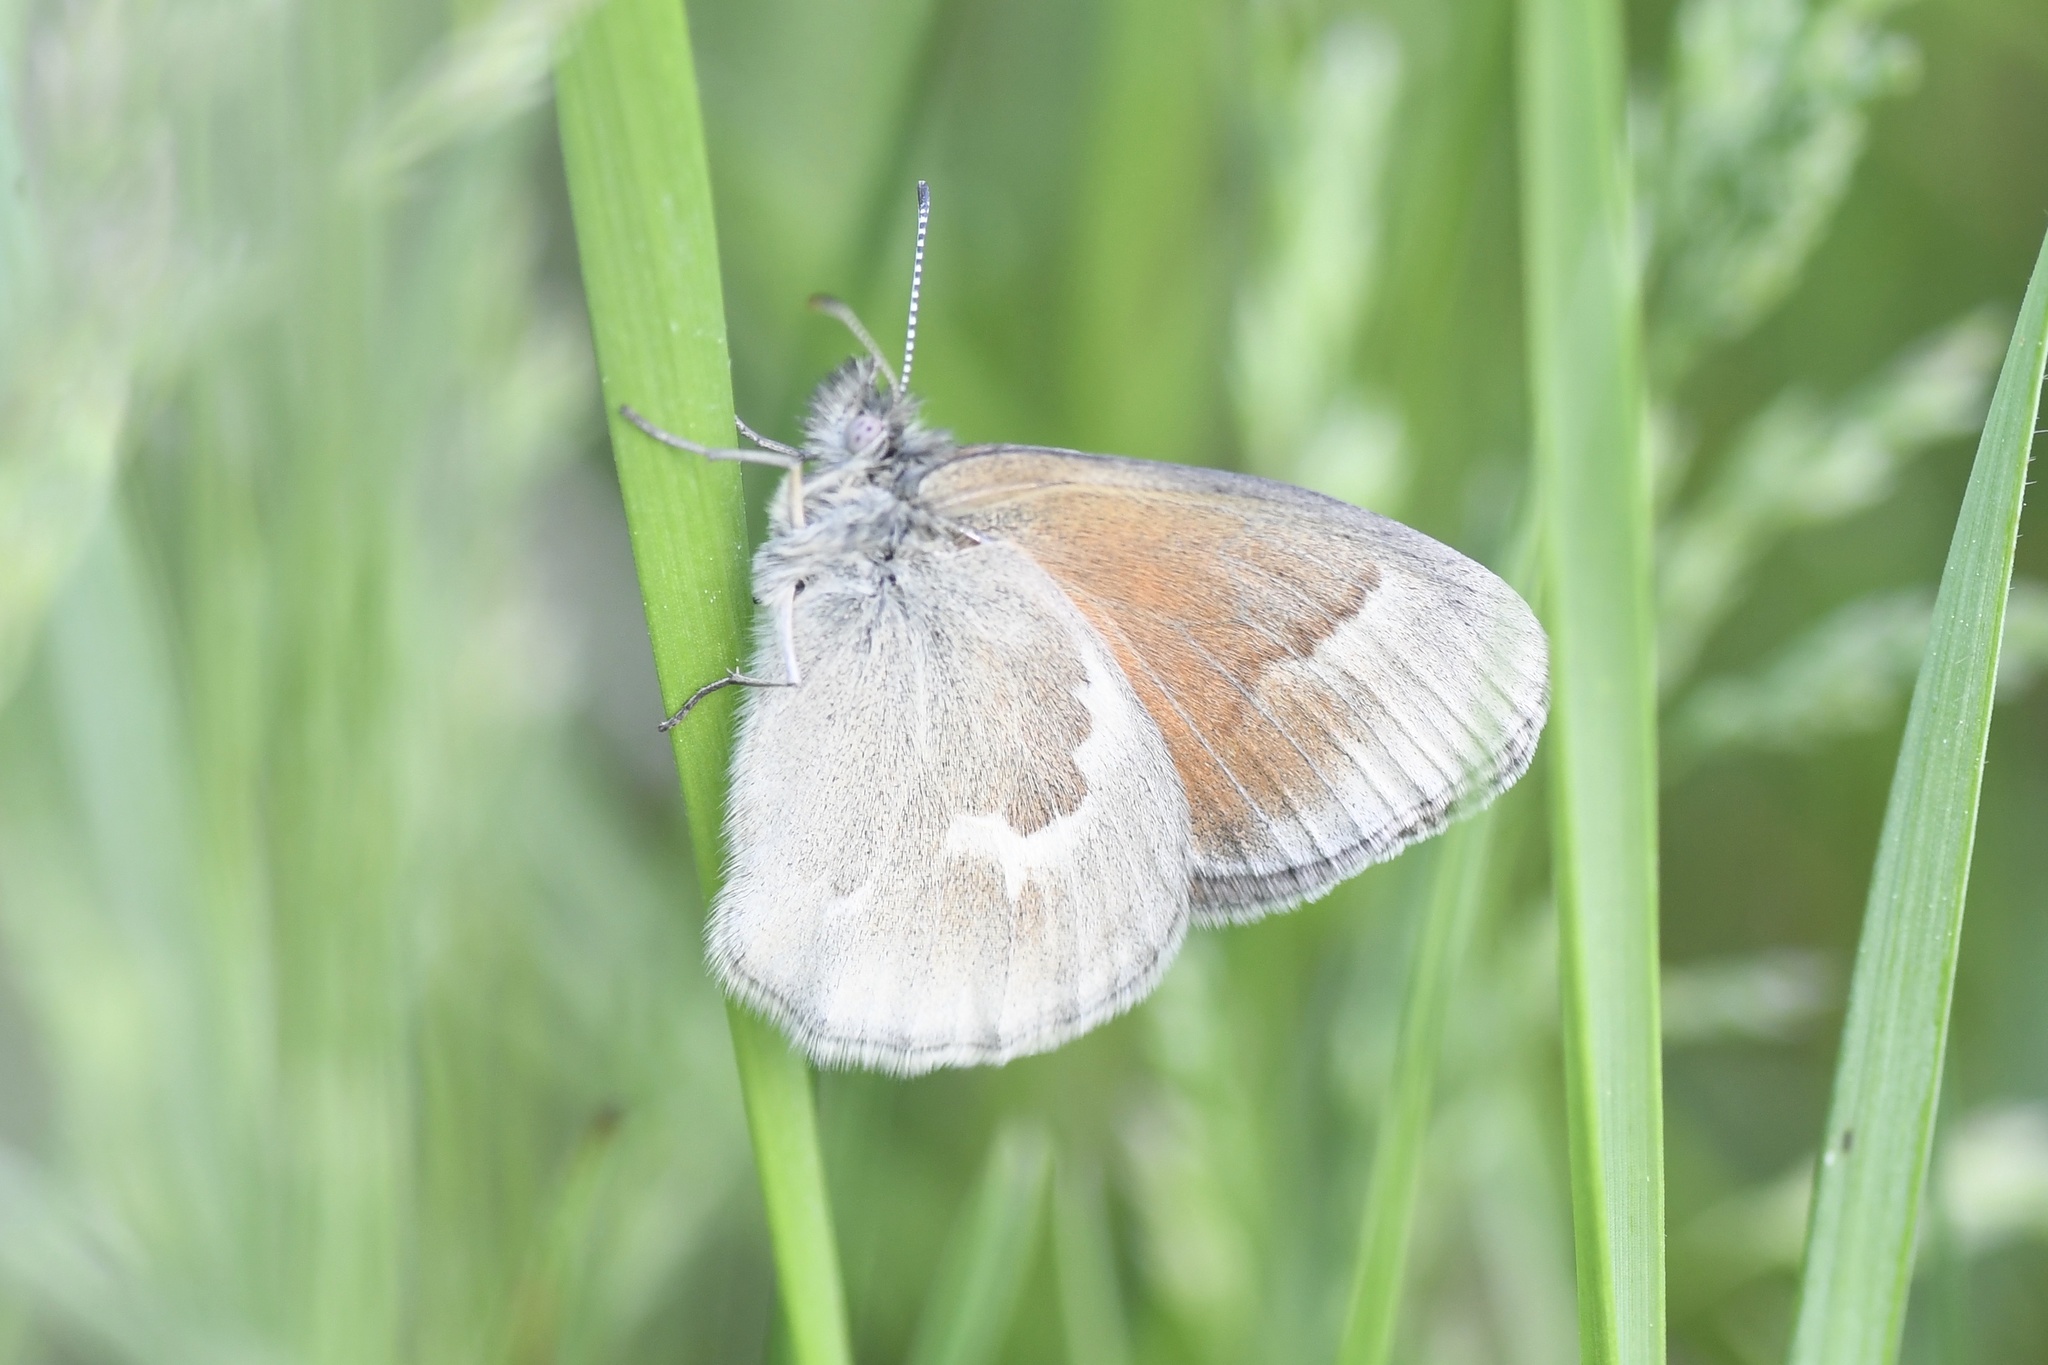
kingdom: Animalia
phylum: Arthropoda
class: Insecta
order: Lepidoptera
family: Nymphalidae
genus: Coenonympha
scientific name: Coenonympha california
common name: Common ringlet
